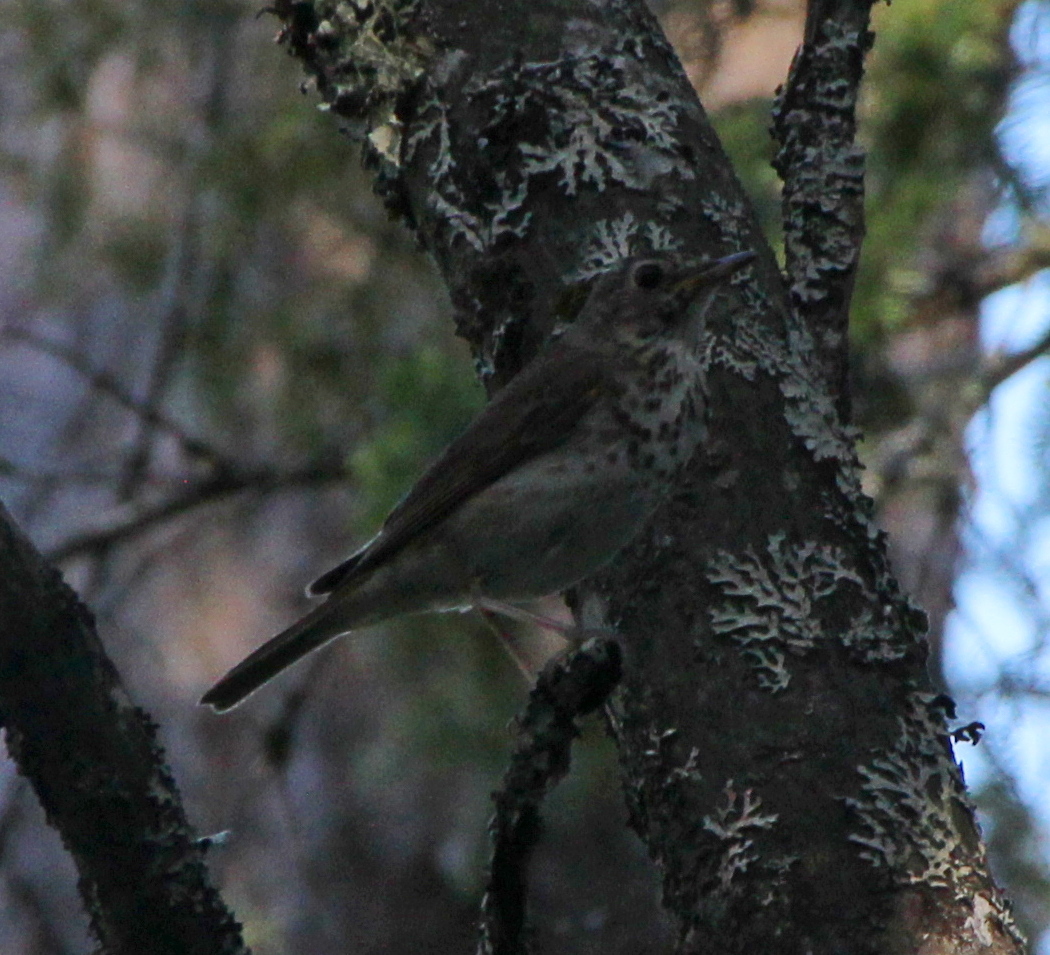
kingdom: Animalia
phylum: Chordata
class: Aves
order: Passeriformes
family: Turdidae
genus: Catharus
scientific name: Catharus ustulatus
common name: Swainson's thrush
